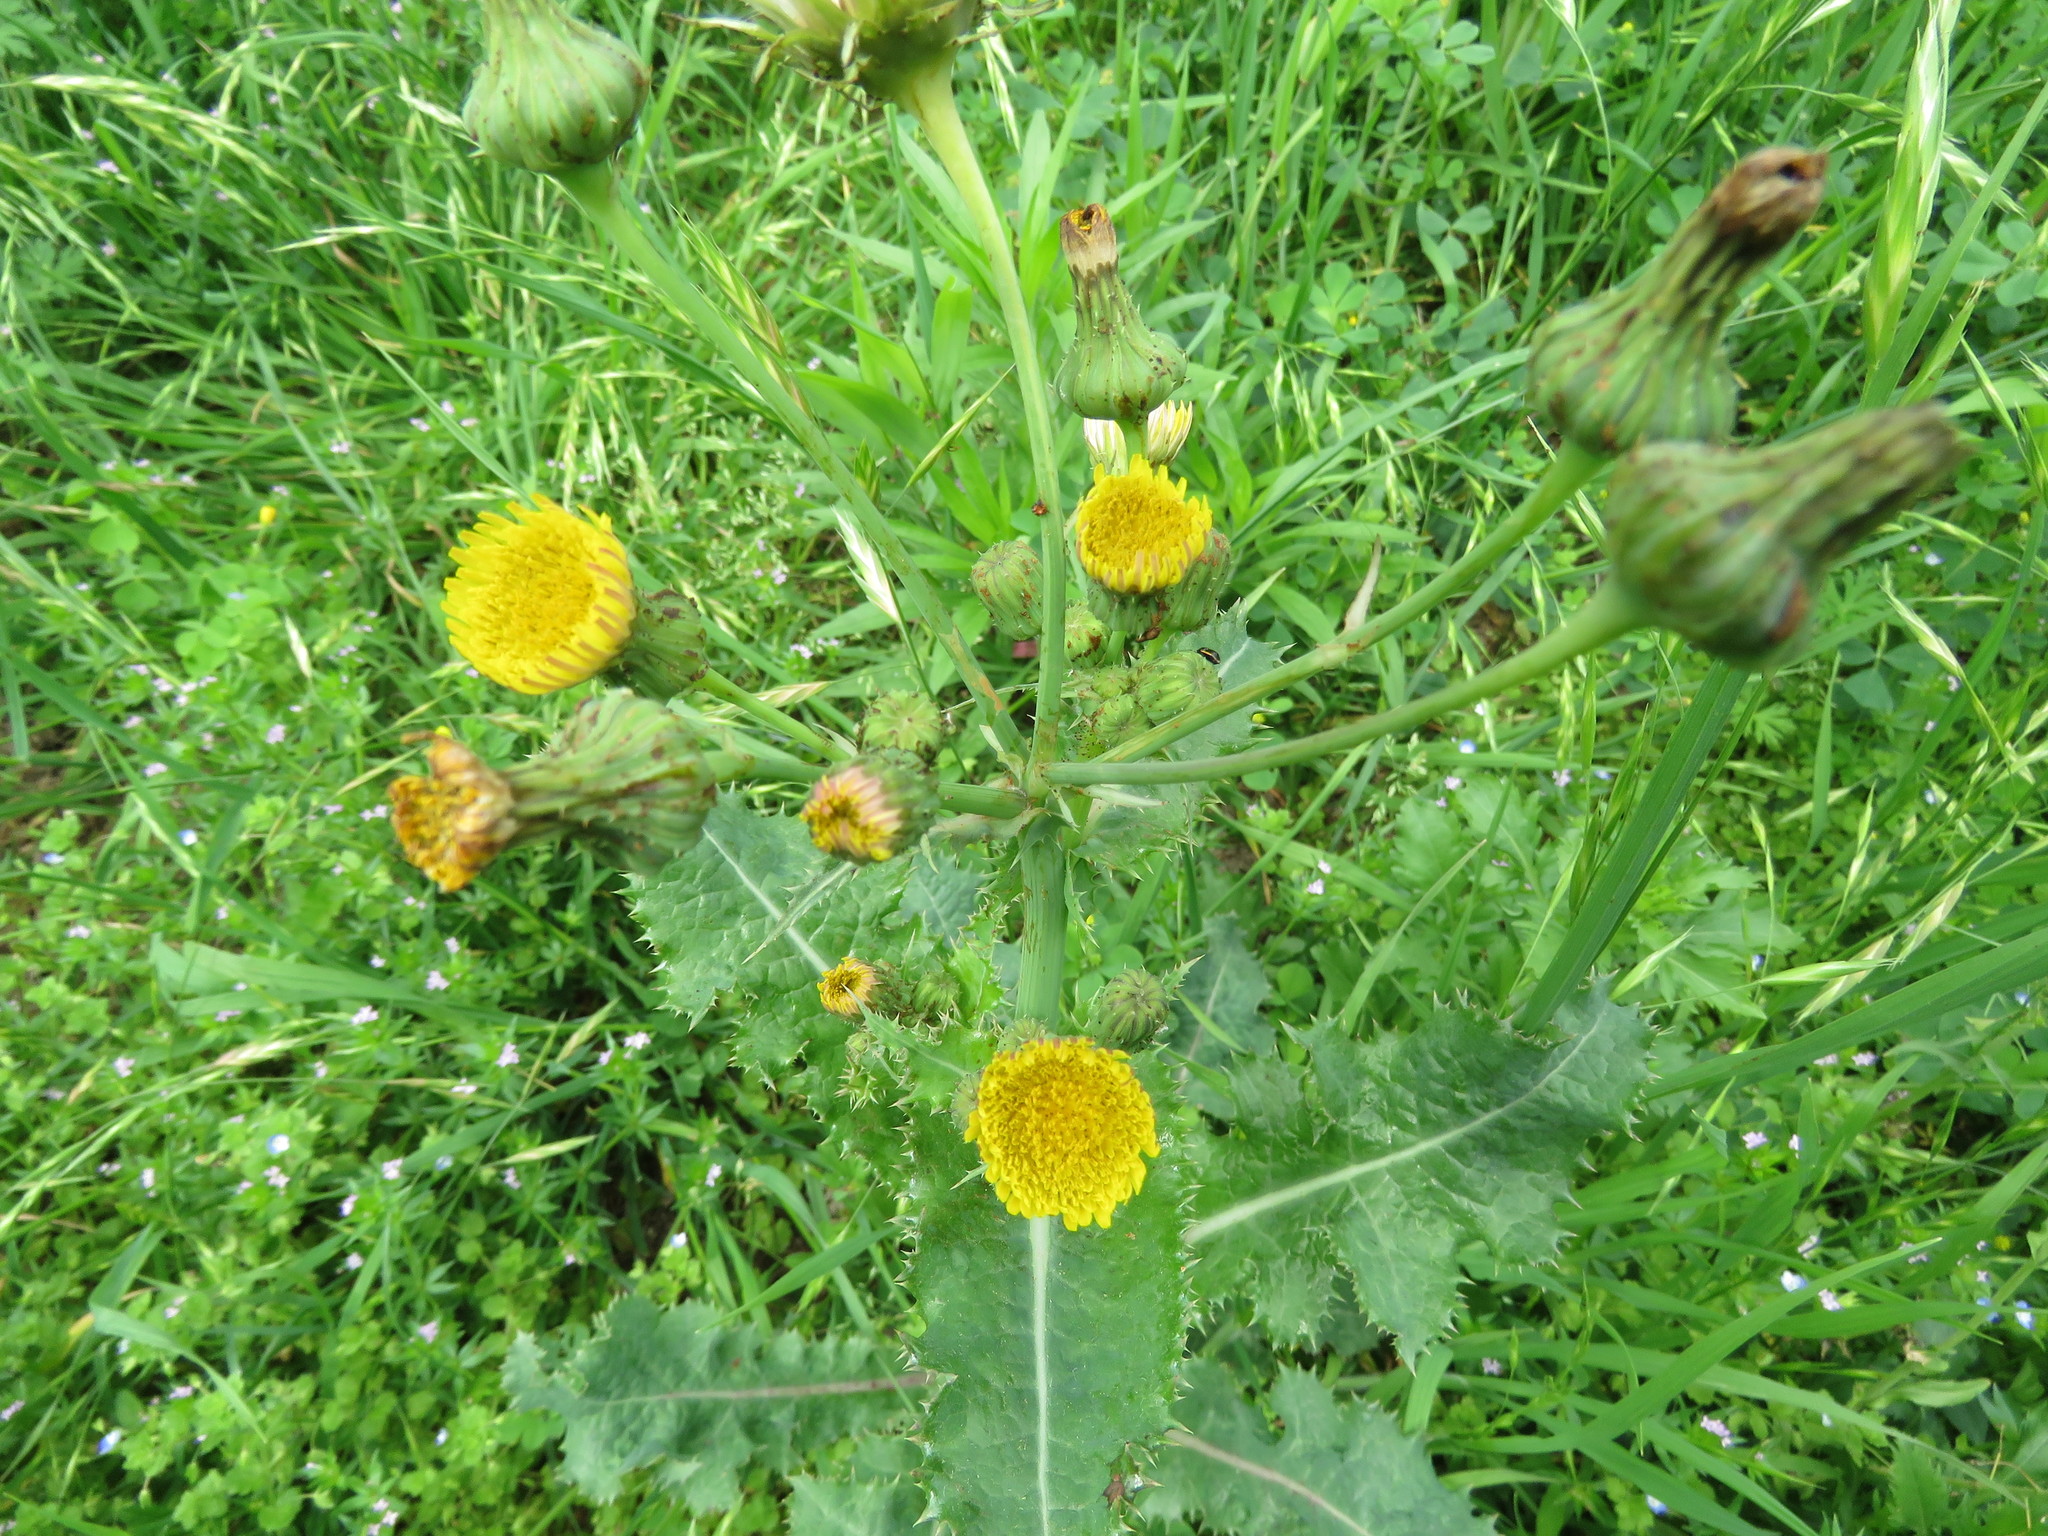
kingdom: Plantae
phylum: Tracheophyta
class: Magnoliopsida
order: Asterales
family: Asteraceae
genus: Sonchus
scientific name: Sonchus asper
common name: Prickly sow-thistle
